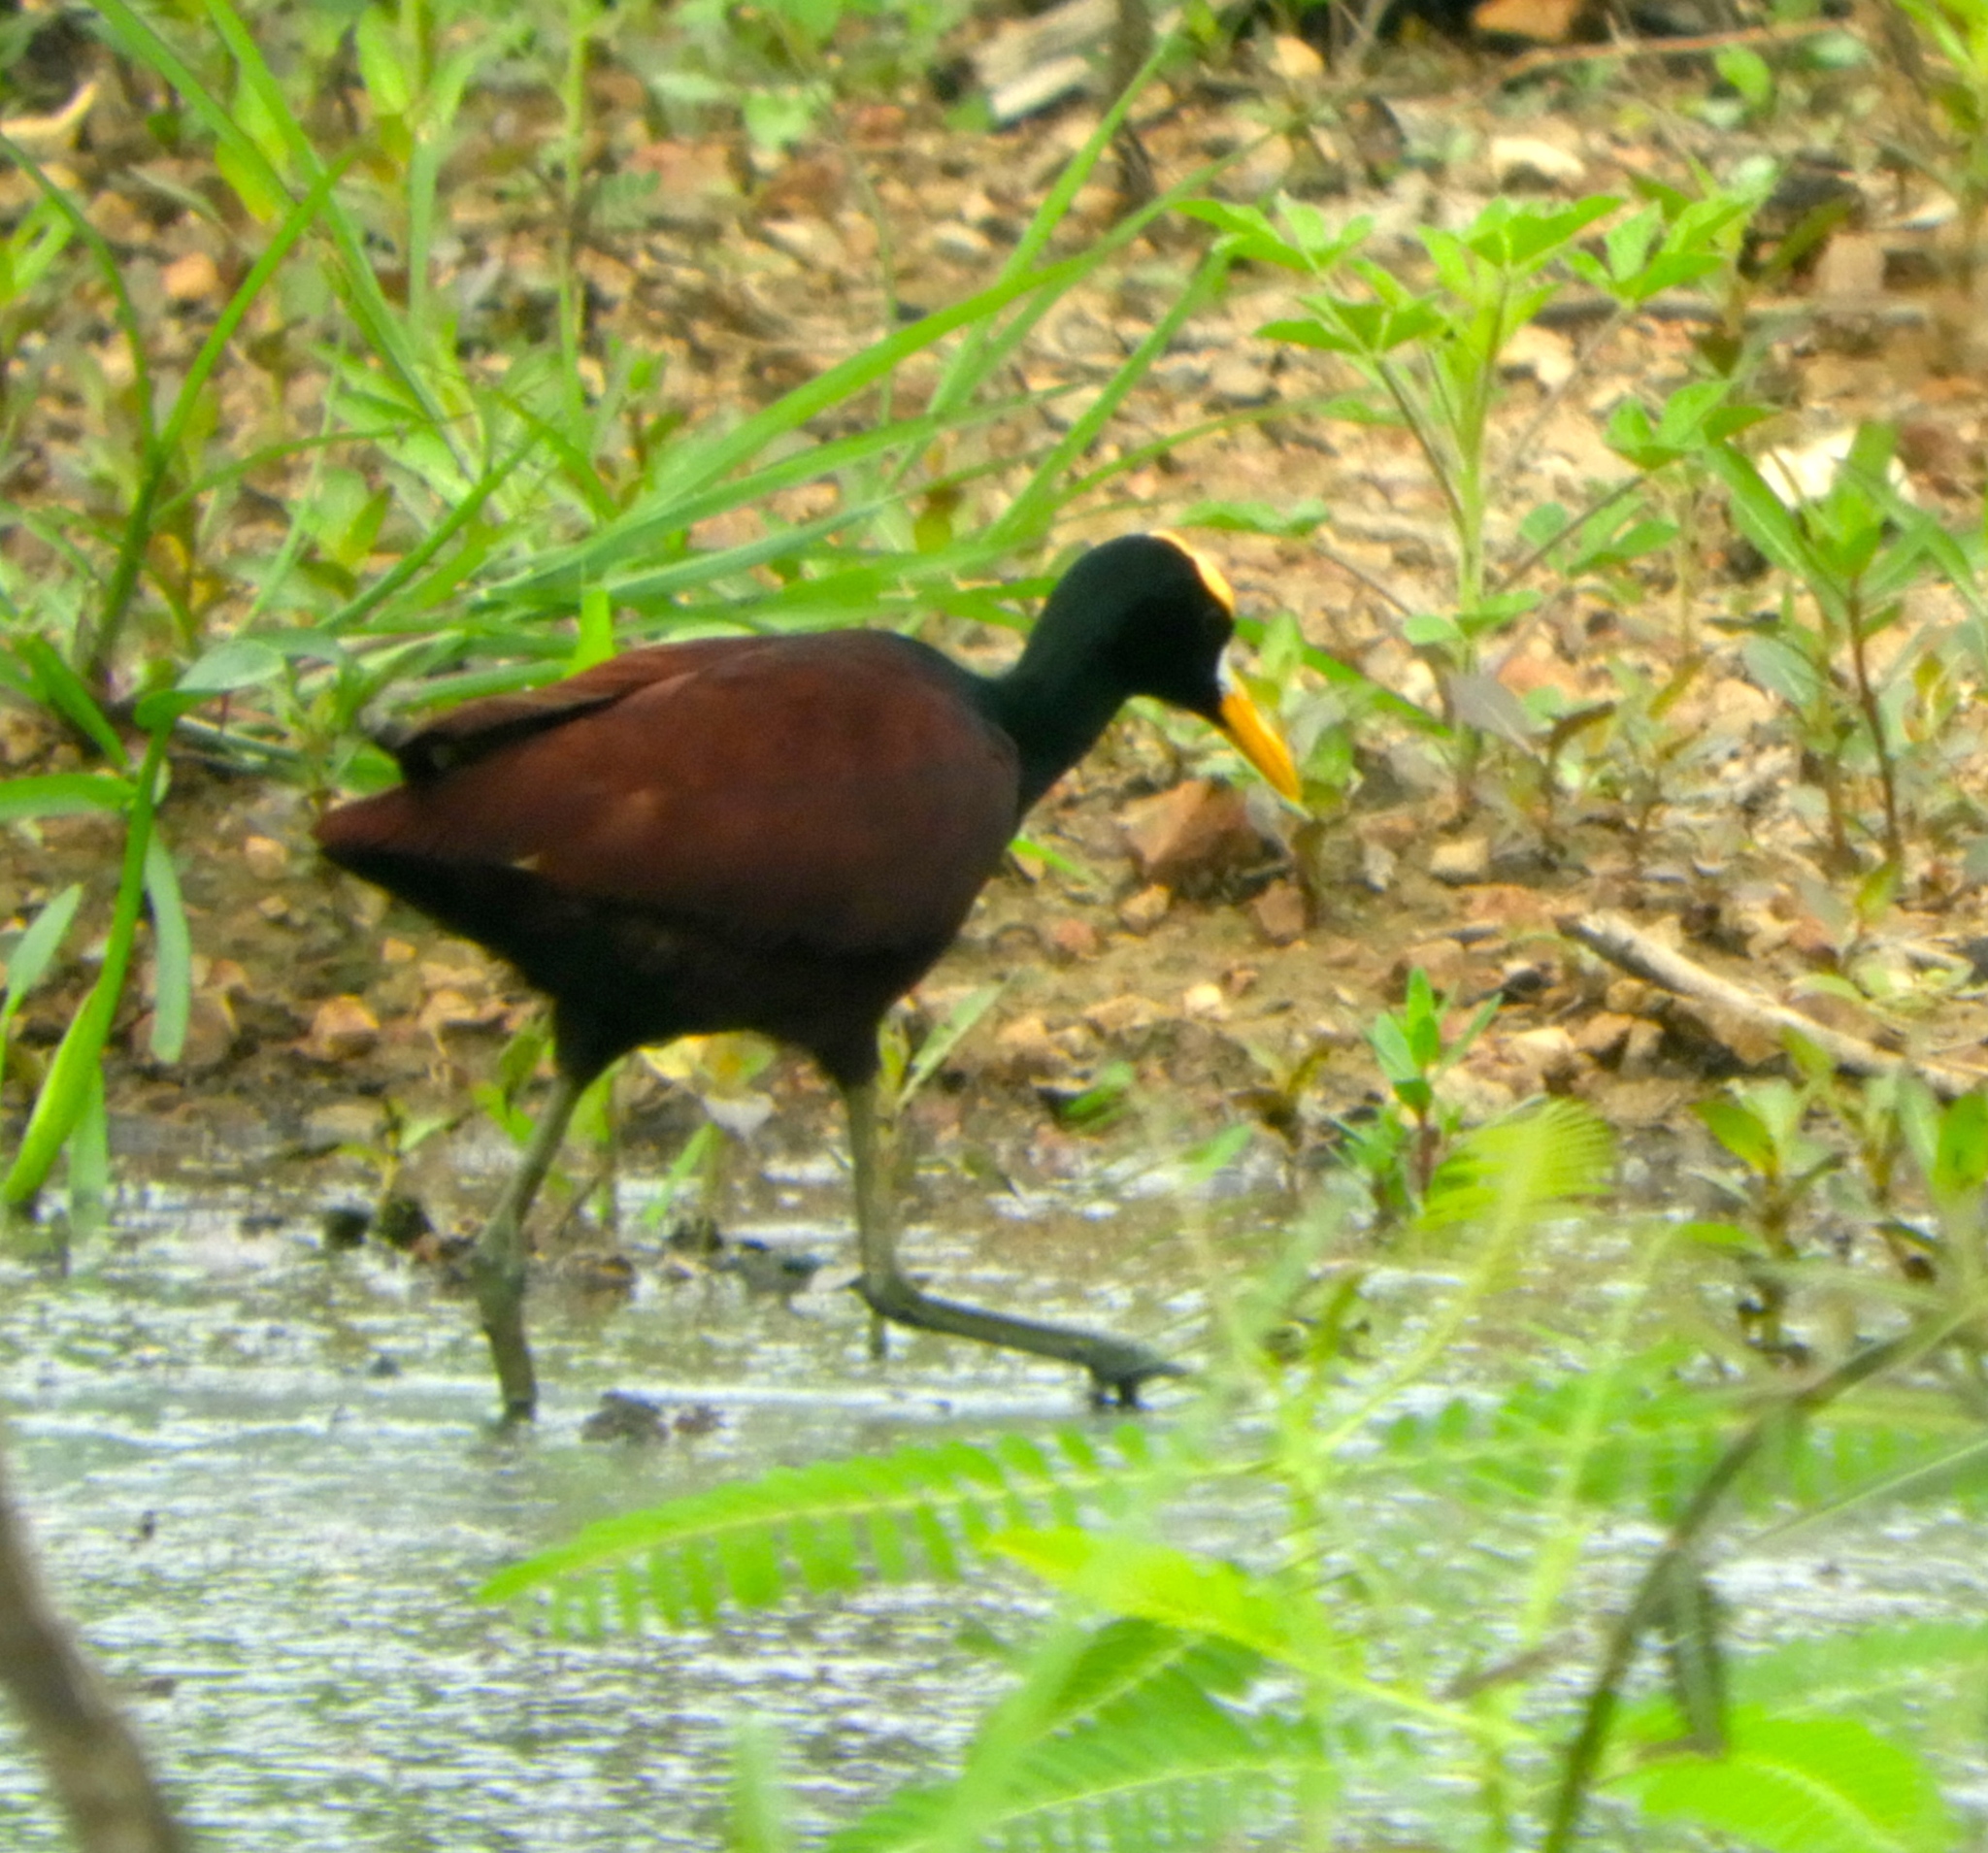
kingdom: Animalia
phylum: Chordata
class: Aves
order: Charadriiformes
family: Jacanidae
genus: Jacana
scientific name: Jacana spinosa
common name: Northern jacana
